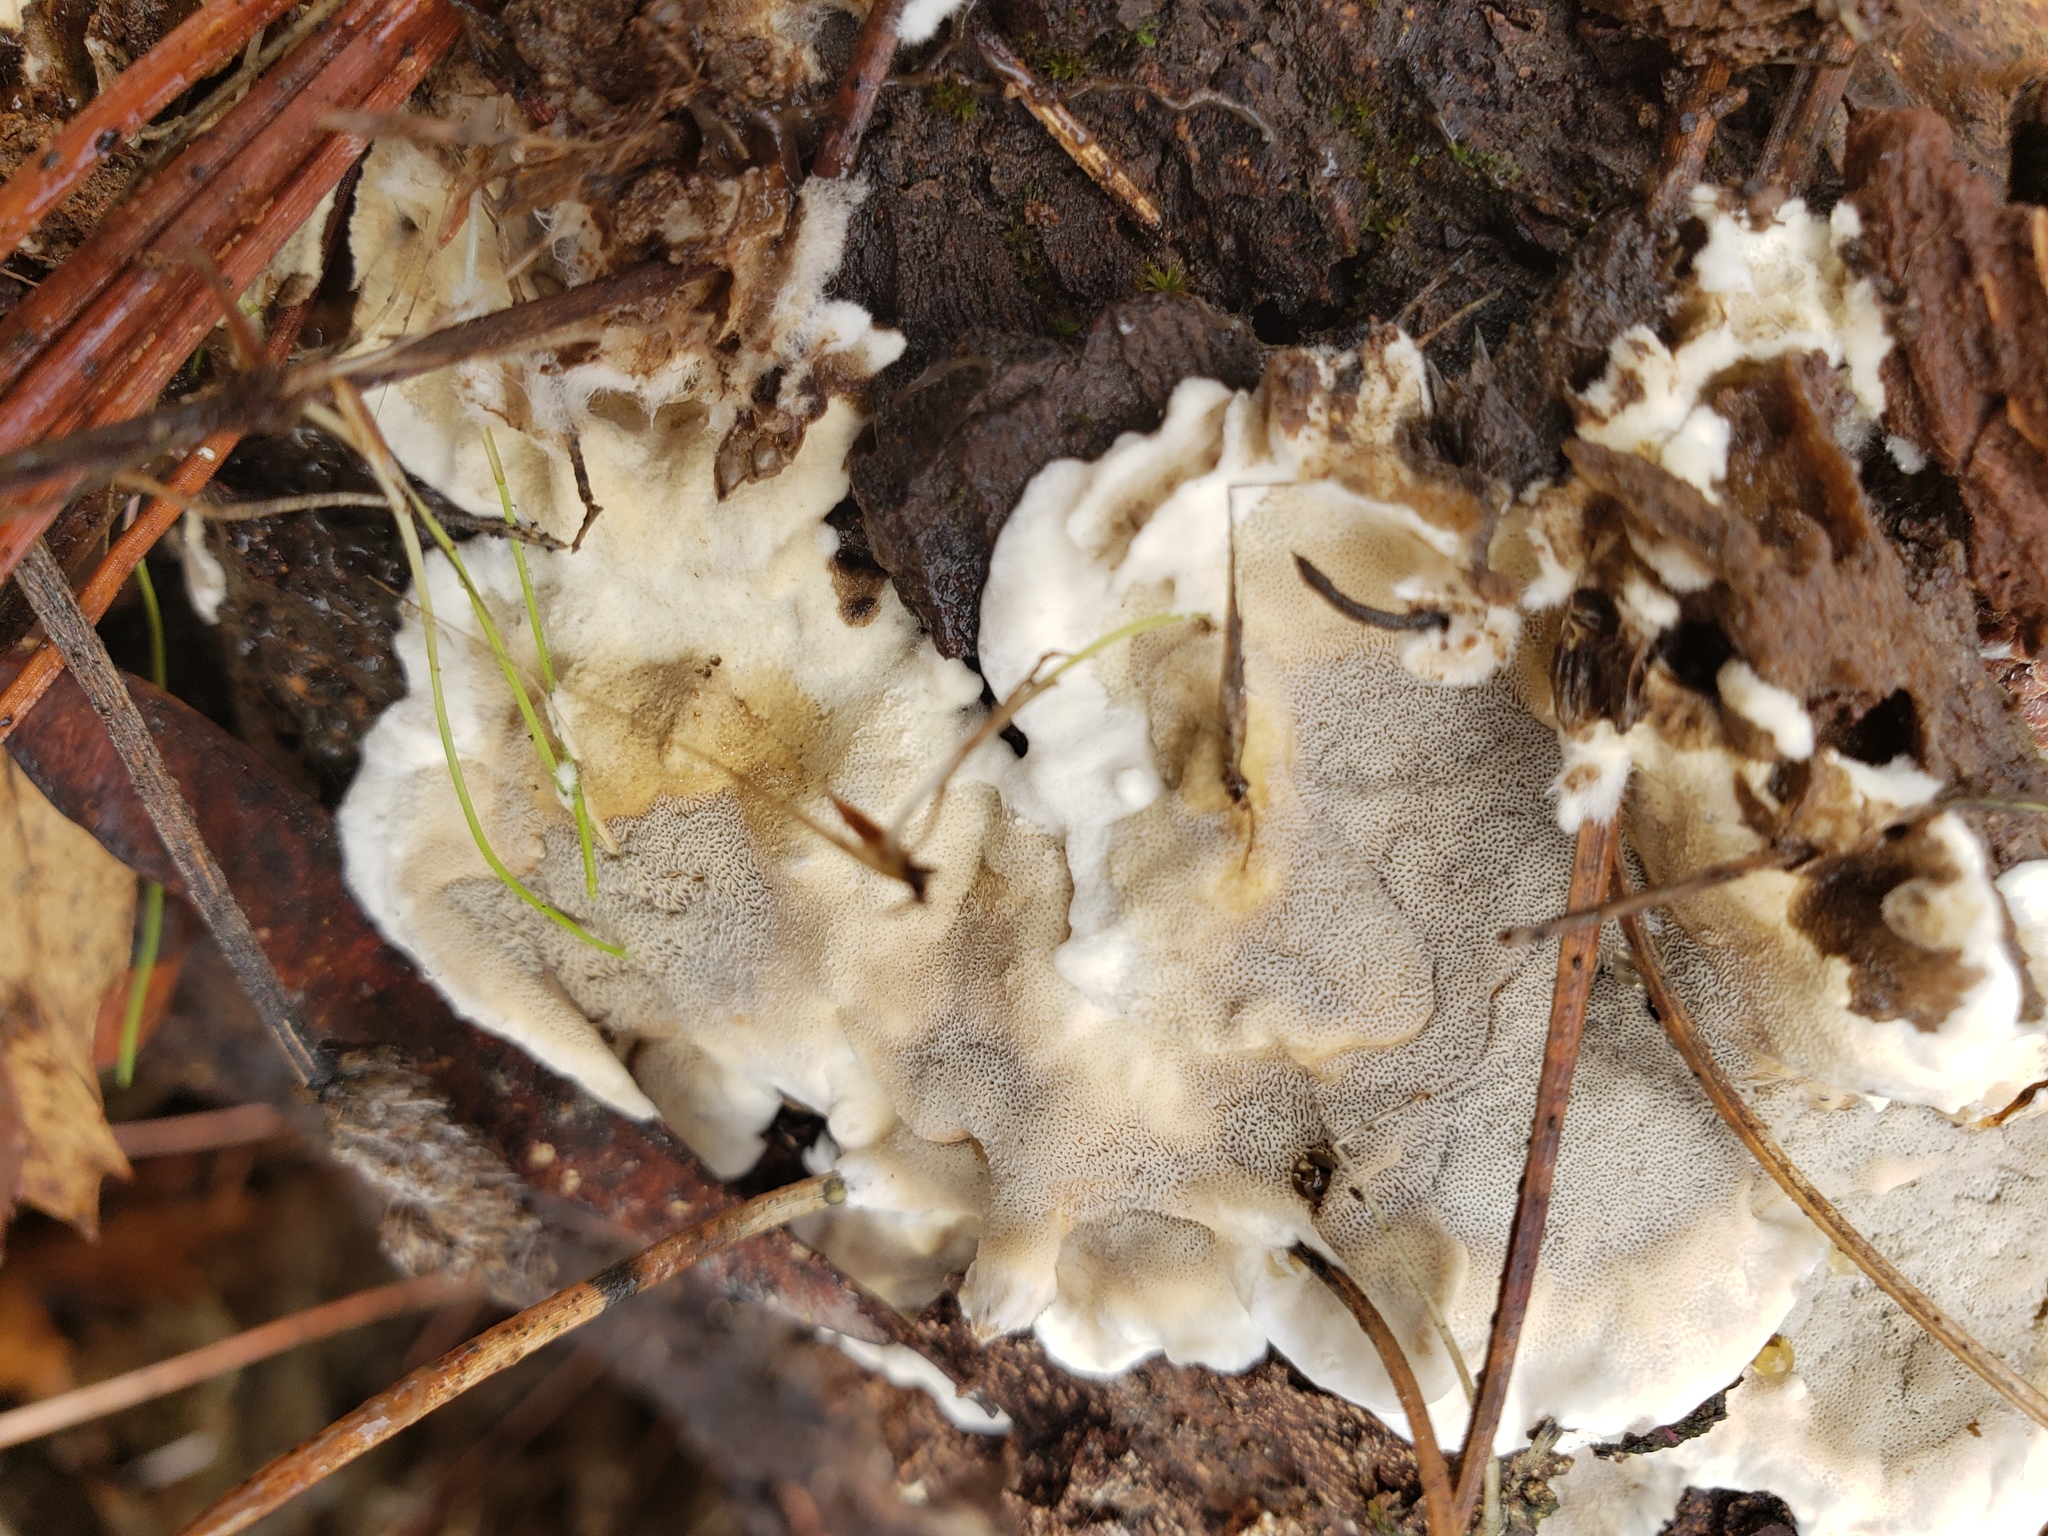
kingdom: Fungi
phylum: Basidiomycota
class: Agaricomycetes
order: Polyporales
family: Irpicaceae
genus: Vitreoporus
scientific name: Vitreoporus dichrous
